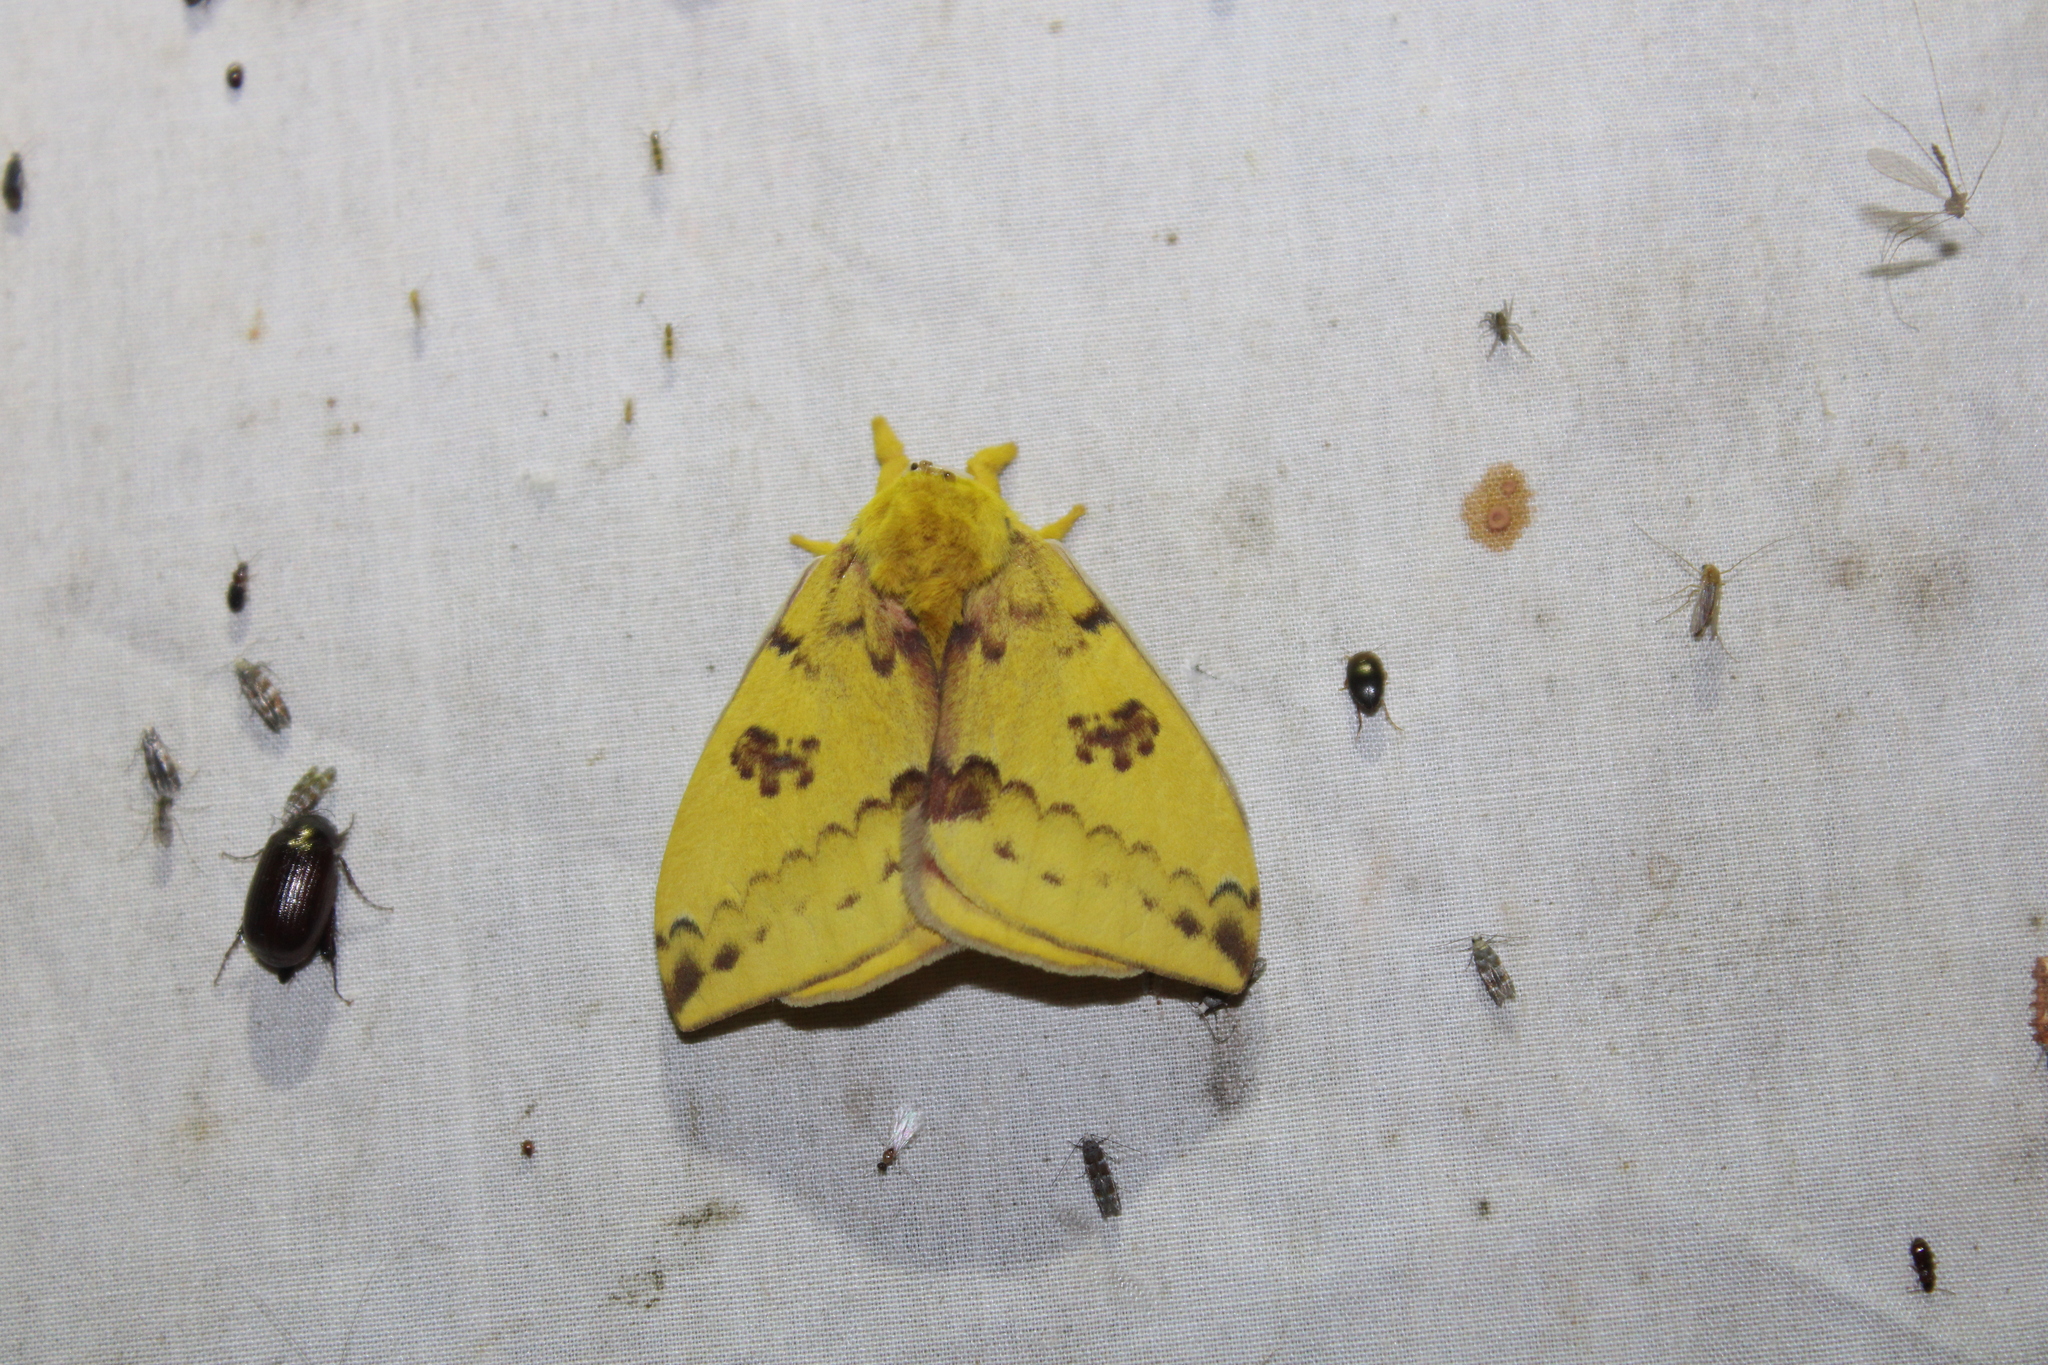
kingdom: Animalia
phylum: Arthropoda
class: Insecta
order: Lepidoptera
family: Saturniidae
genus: Automeris
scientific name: Automeris io
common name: Io moth
